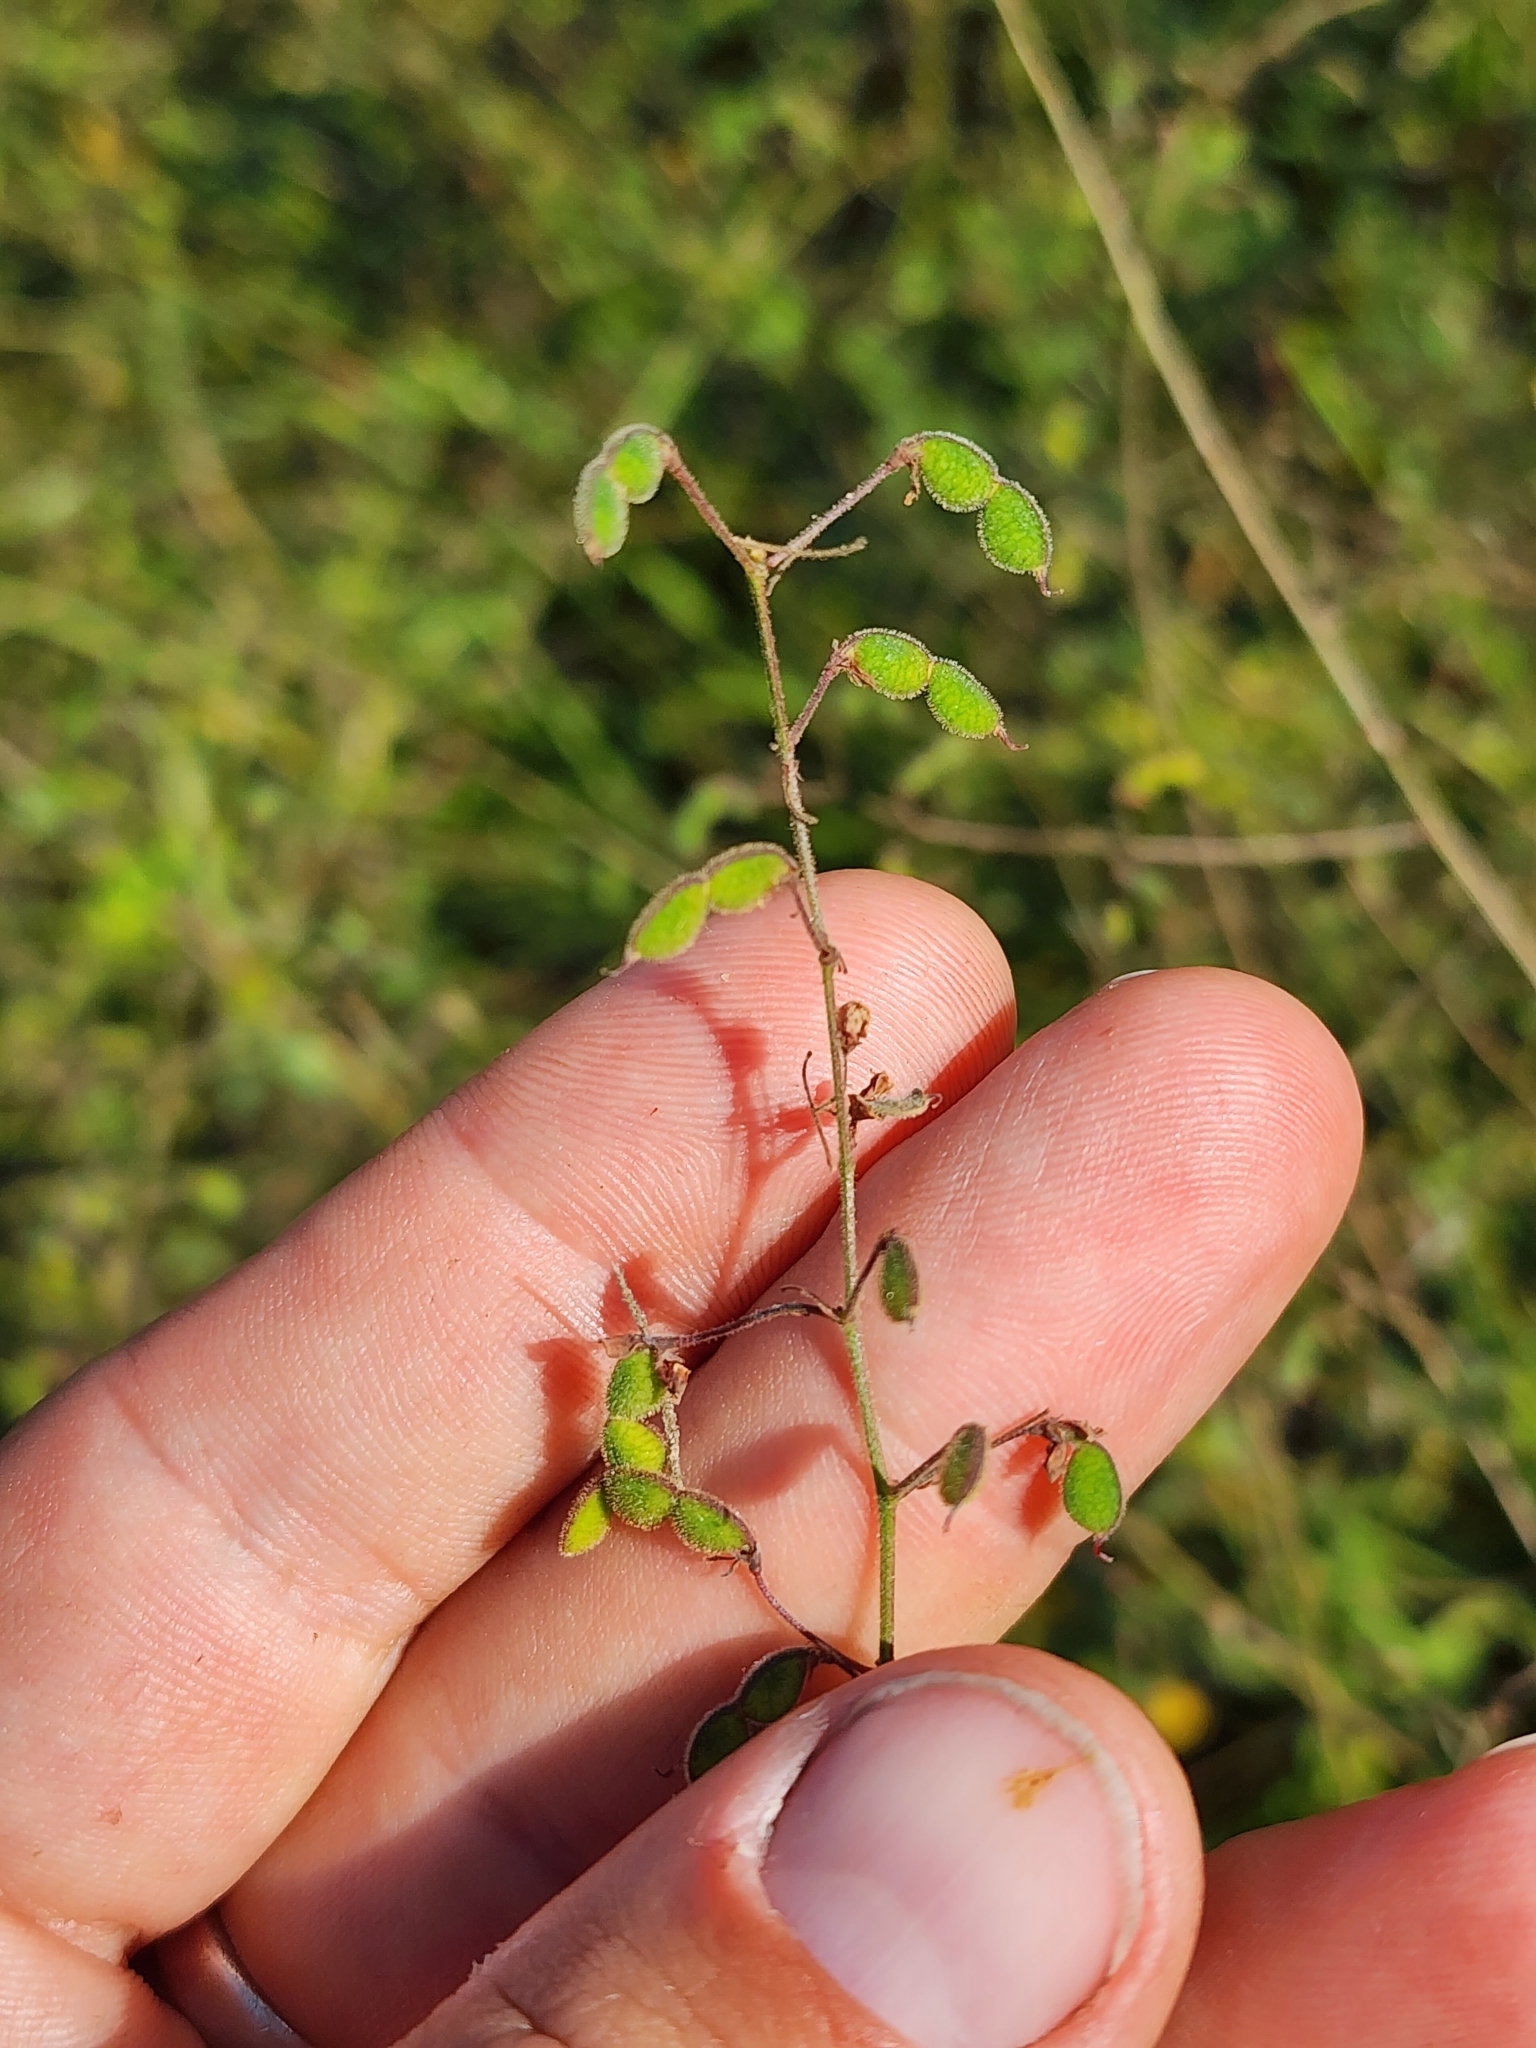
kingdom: Plantae
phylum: Tracheophyta
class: Magnoliopsida
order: Fabales
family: Fabaceae
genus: Desmodium
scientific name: Desmodium ciliare
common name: Hairy small-leaf ticktrefoil
